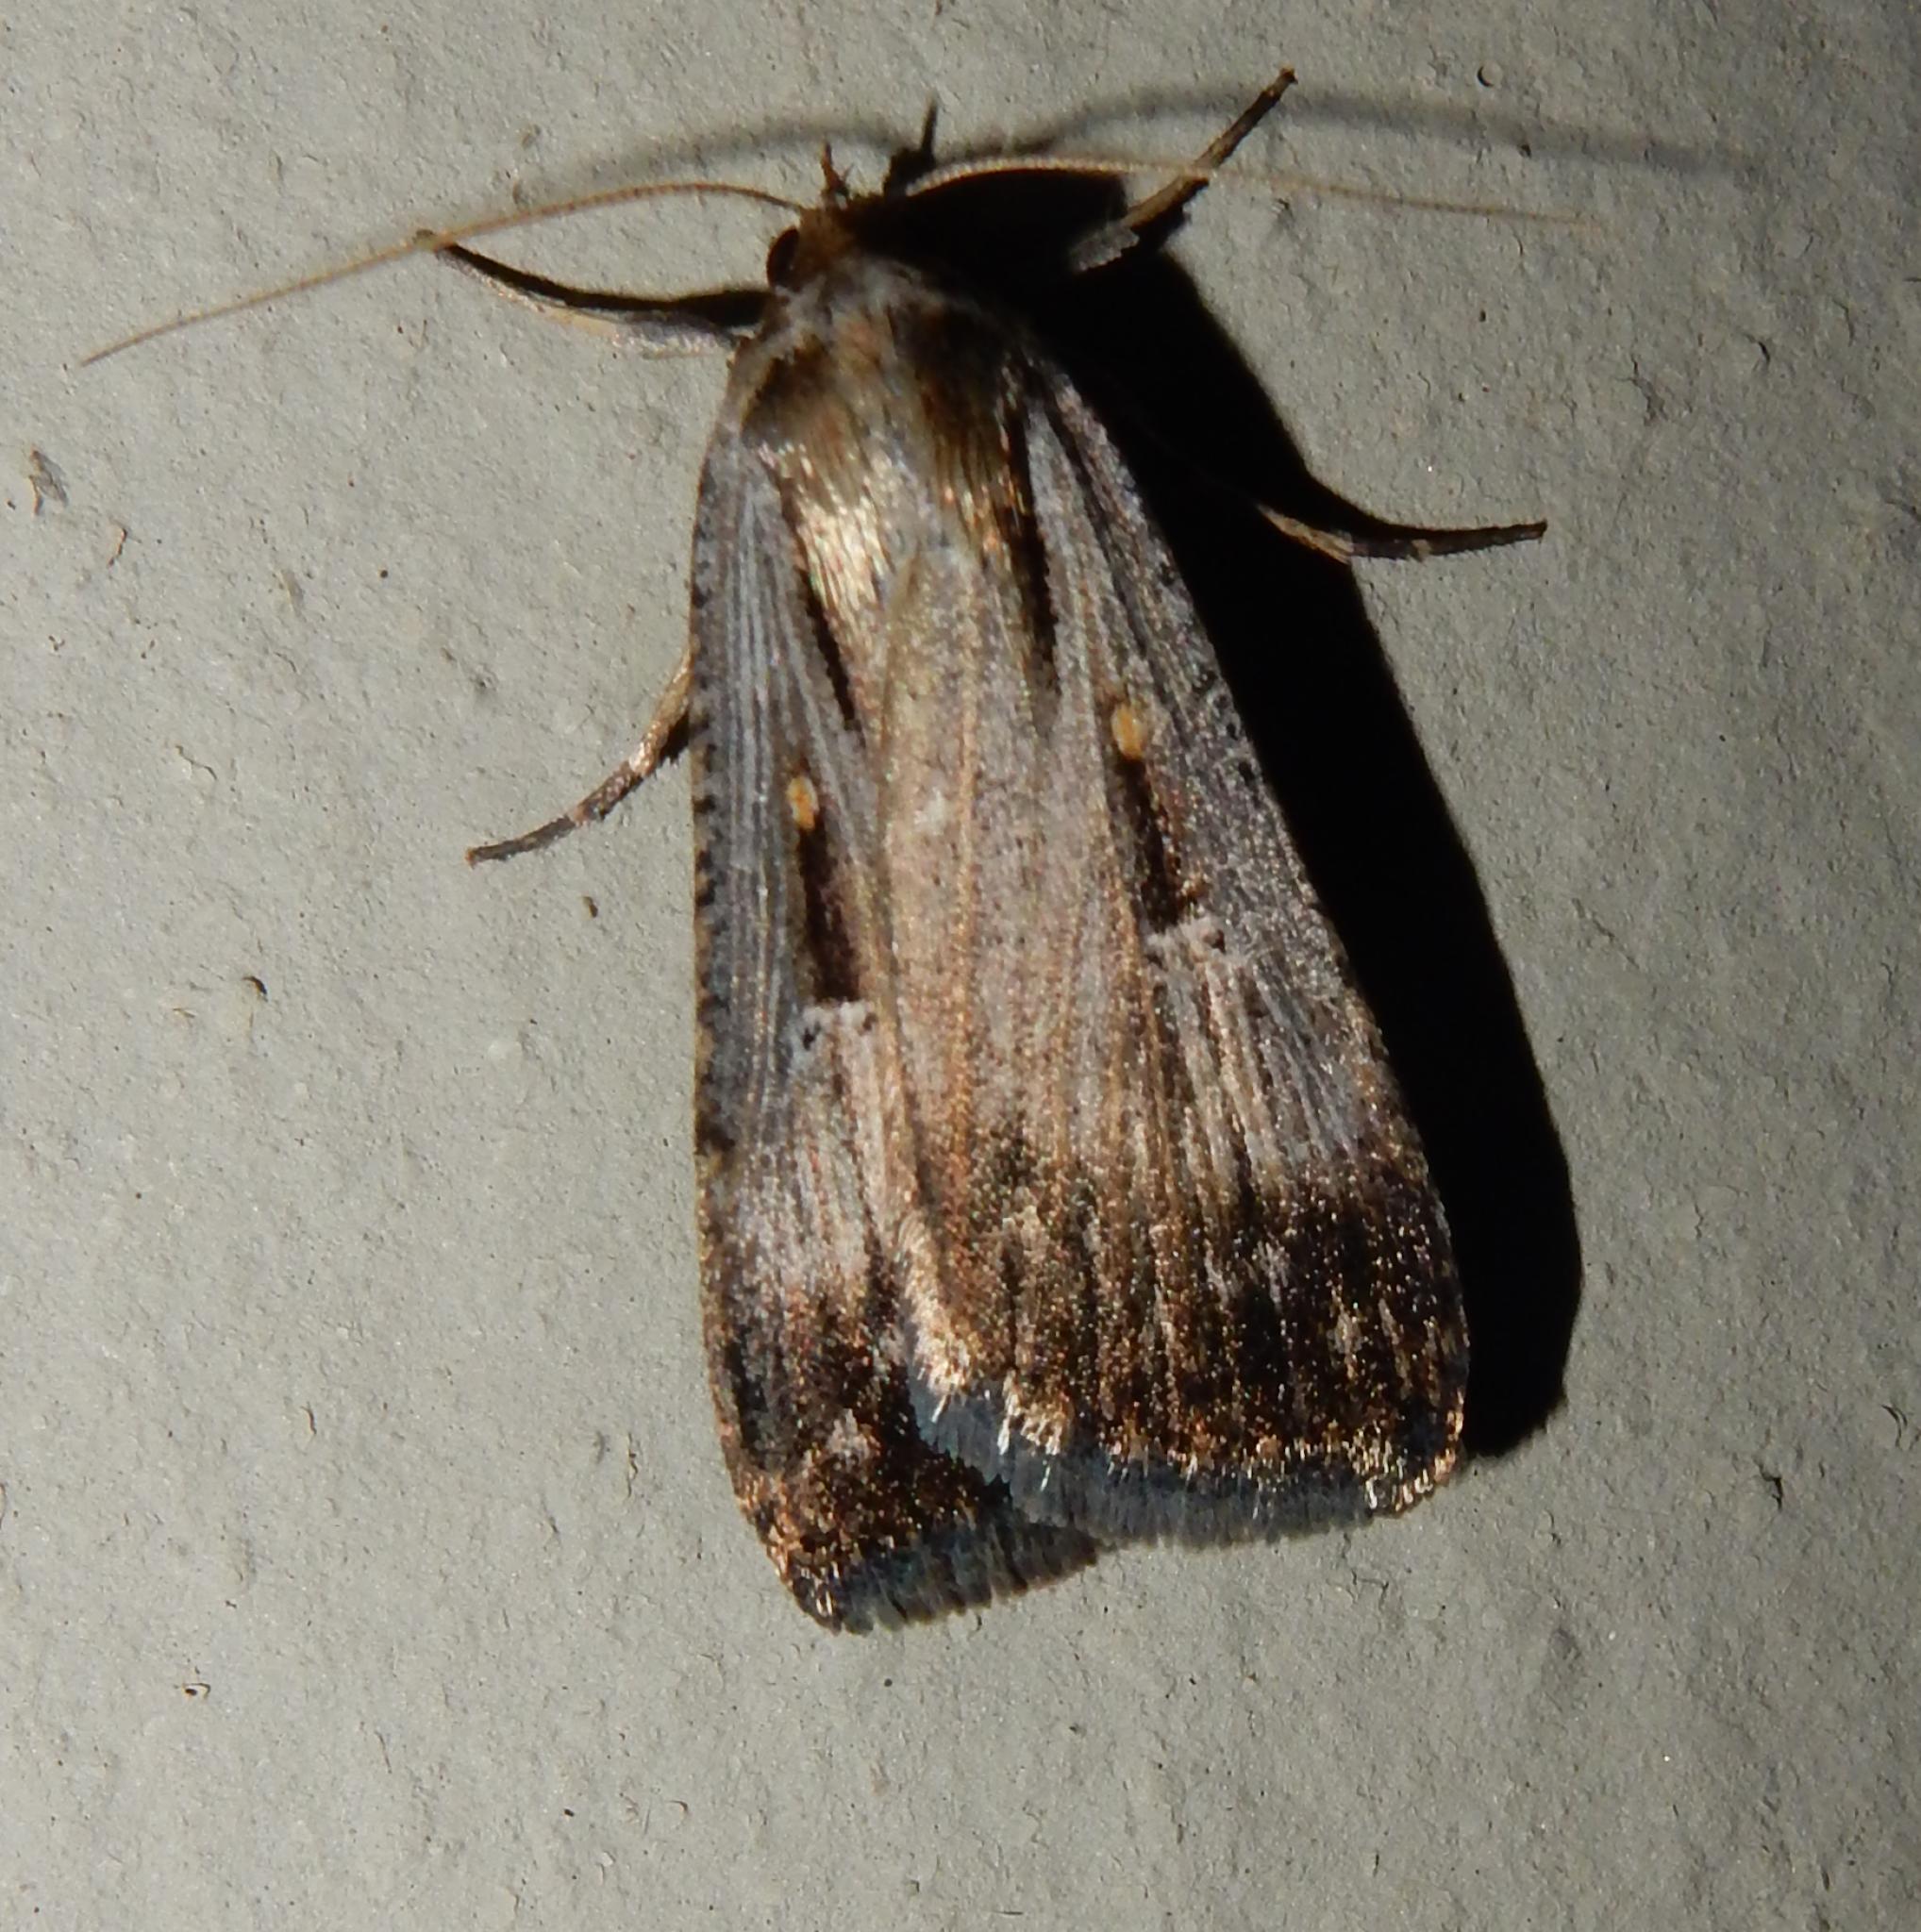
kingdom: Animalia
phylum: Arthropoda
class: Insecta
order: Lepidoptera
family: Noctuidae
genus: Tathorhynchus
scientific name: Tathorhynchus exsiccata
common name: Levant blackneck moth
